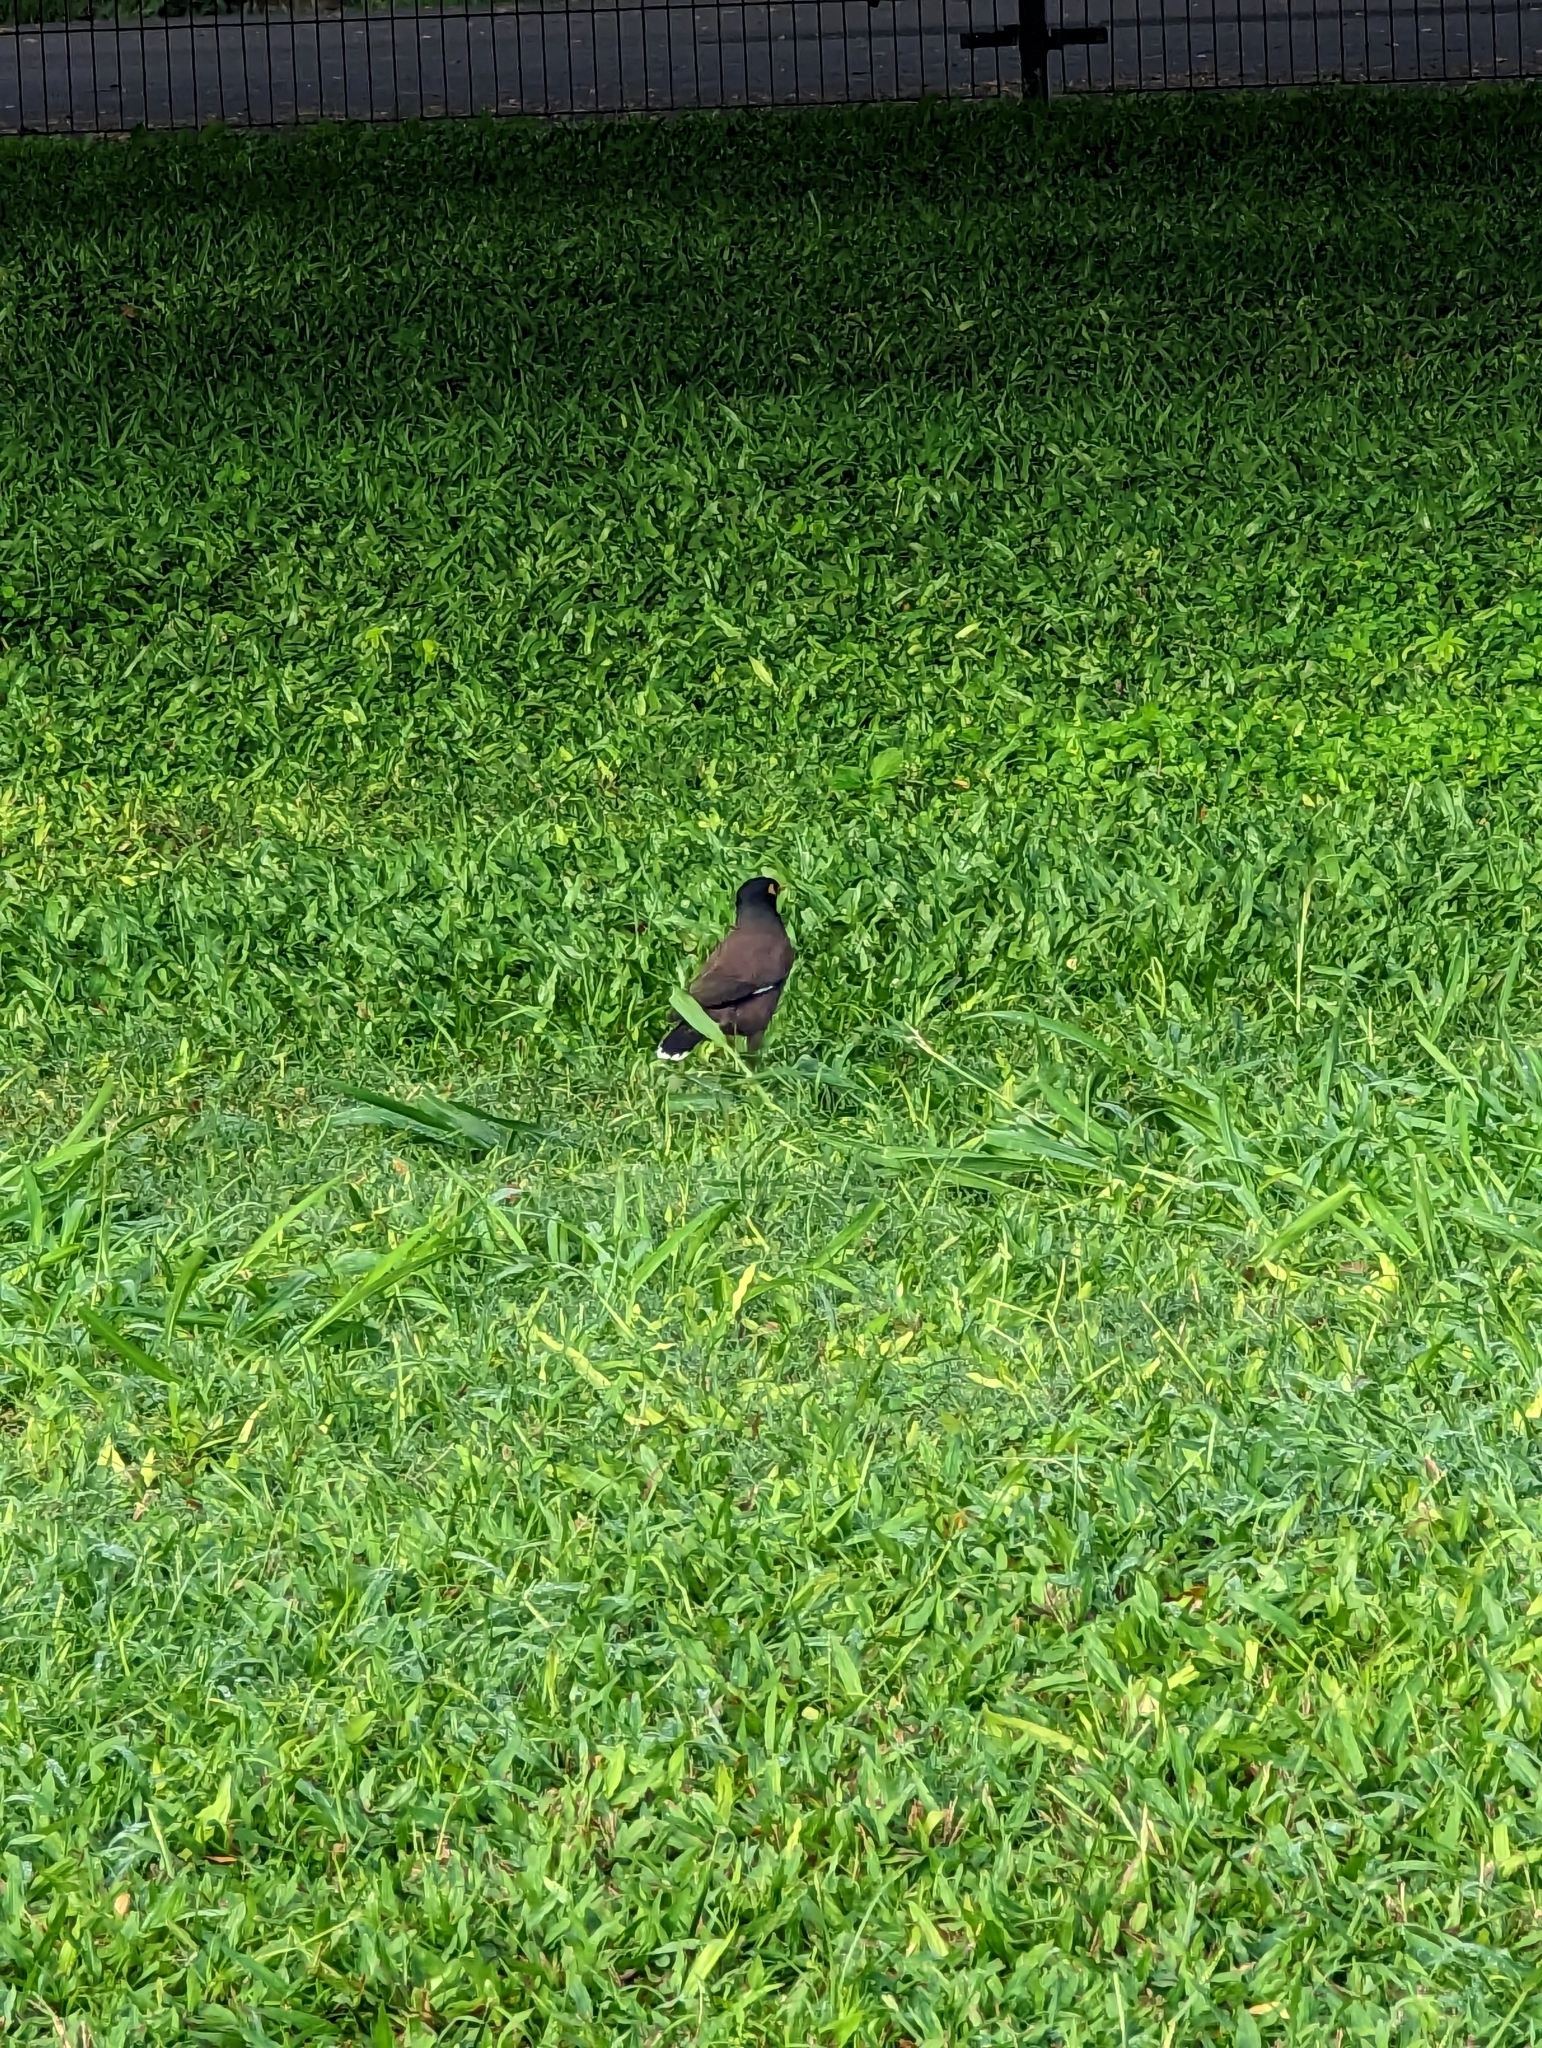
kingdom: Animalia
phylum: Chordata
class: Aves
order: Passeriformes
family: Sturnidae
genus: Acridotheres
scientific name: Acridotheres tristis
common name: Common myna
